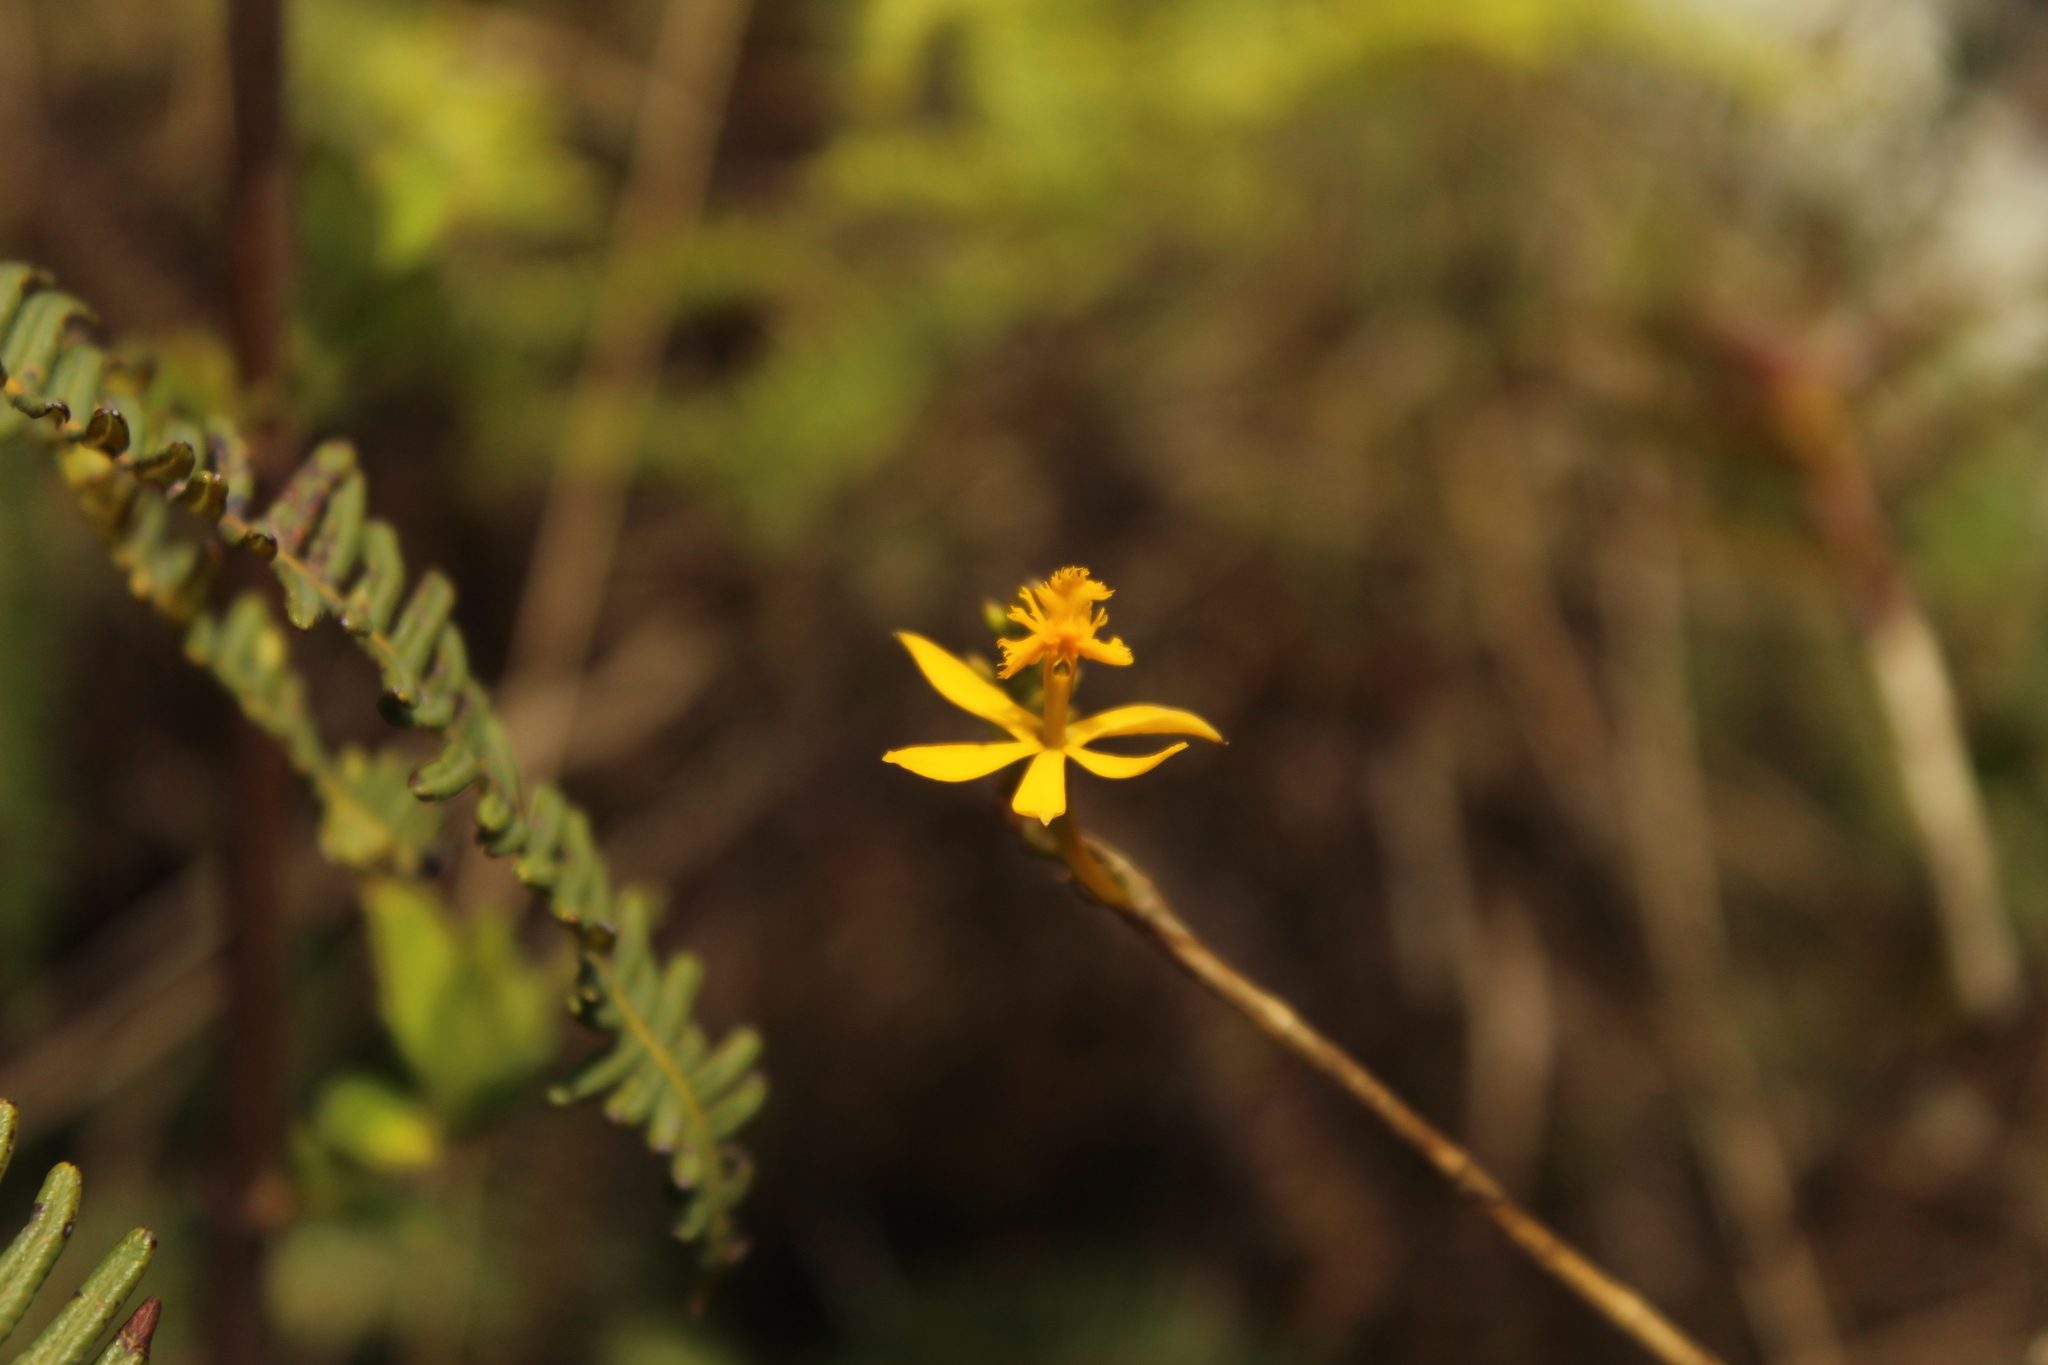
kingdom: Plantae
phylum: Tracheophyta
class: Liliopsida
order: Asparagales
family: Orchidaceae
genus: Epidendrum
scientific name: Epidendrum aura-usecheae
